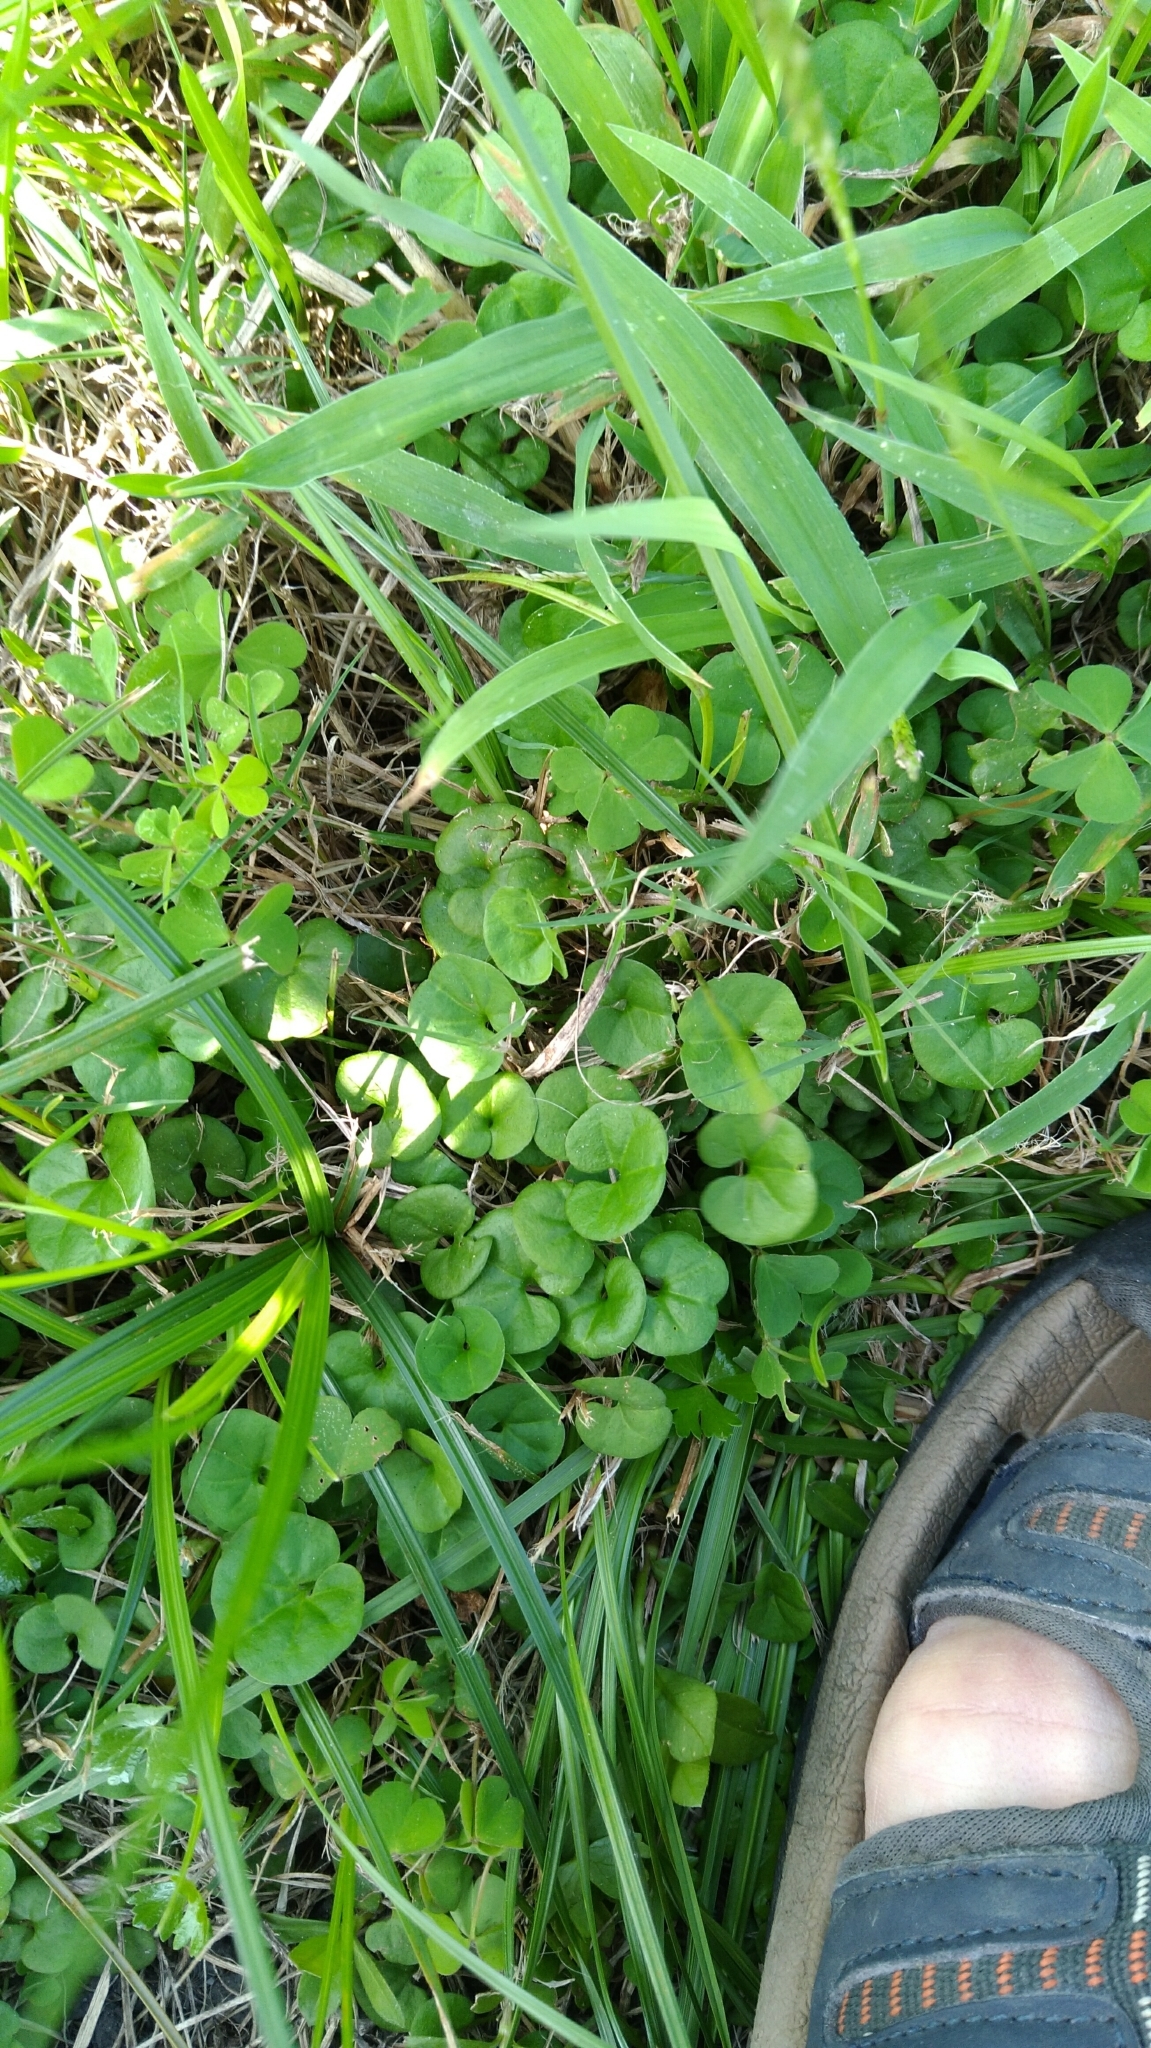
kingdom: Plantae
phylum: Tracheophyta
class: Magnoliopsida
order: Solanales
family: Convolvulaceae
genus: Dichondra
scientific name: Dichondra micrantha
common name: Kidneyweed
